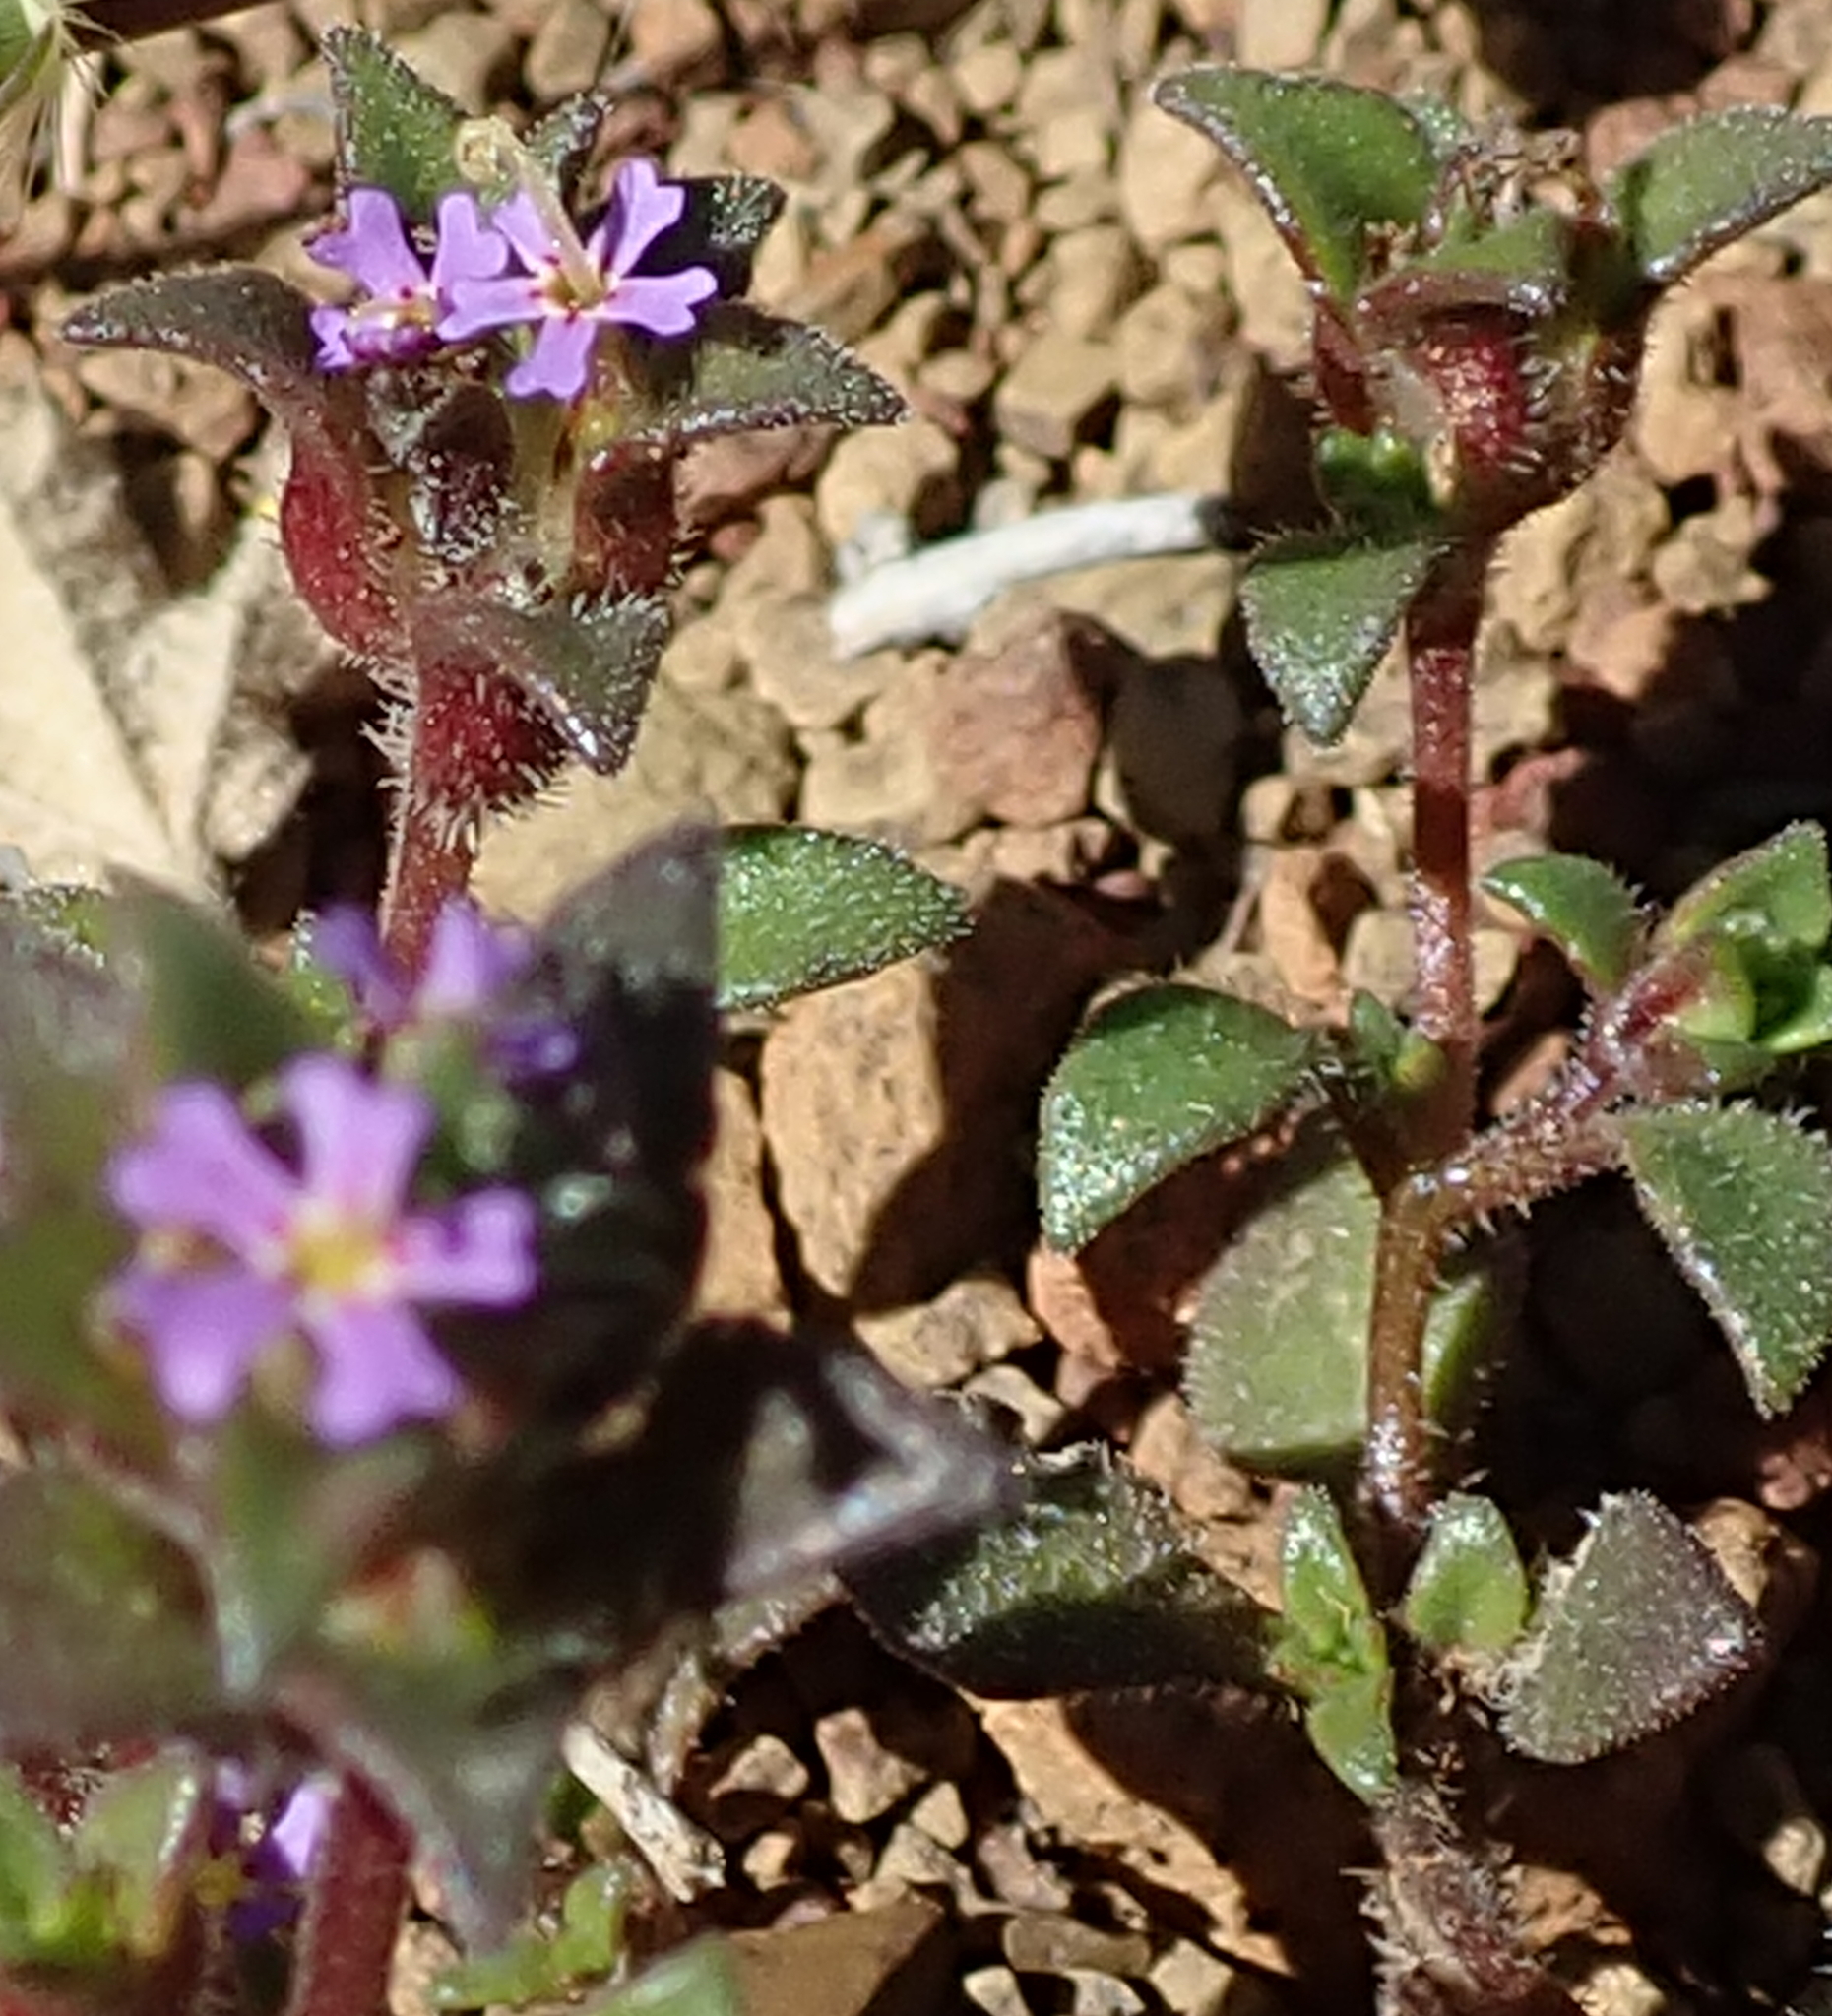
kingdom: Plantae
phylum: Tracheophyta
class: Magnoliopsida
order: Lamiales
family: Scrophulariaceae
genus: Zaluzianskya
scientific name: Zaluzianskya minima
